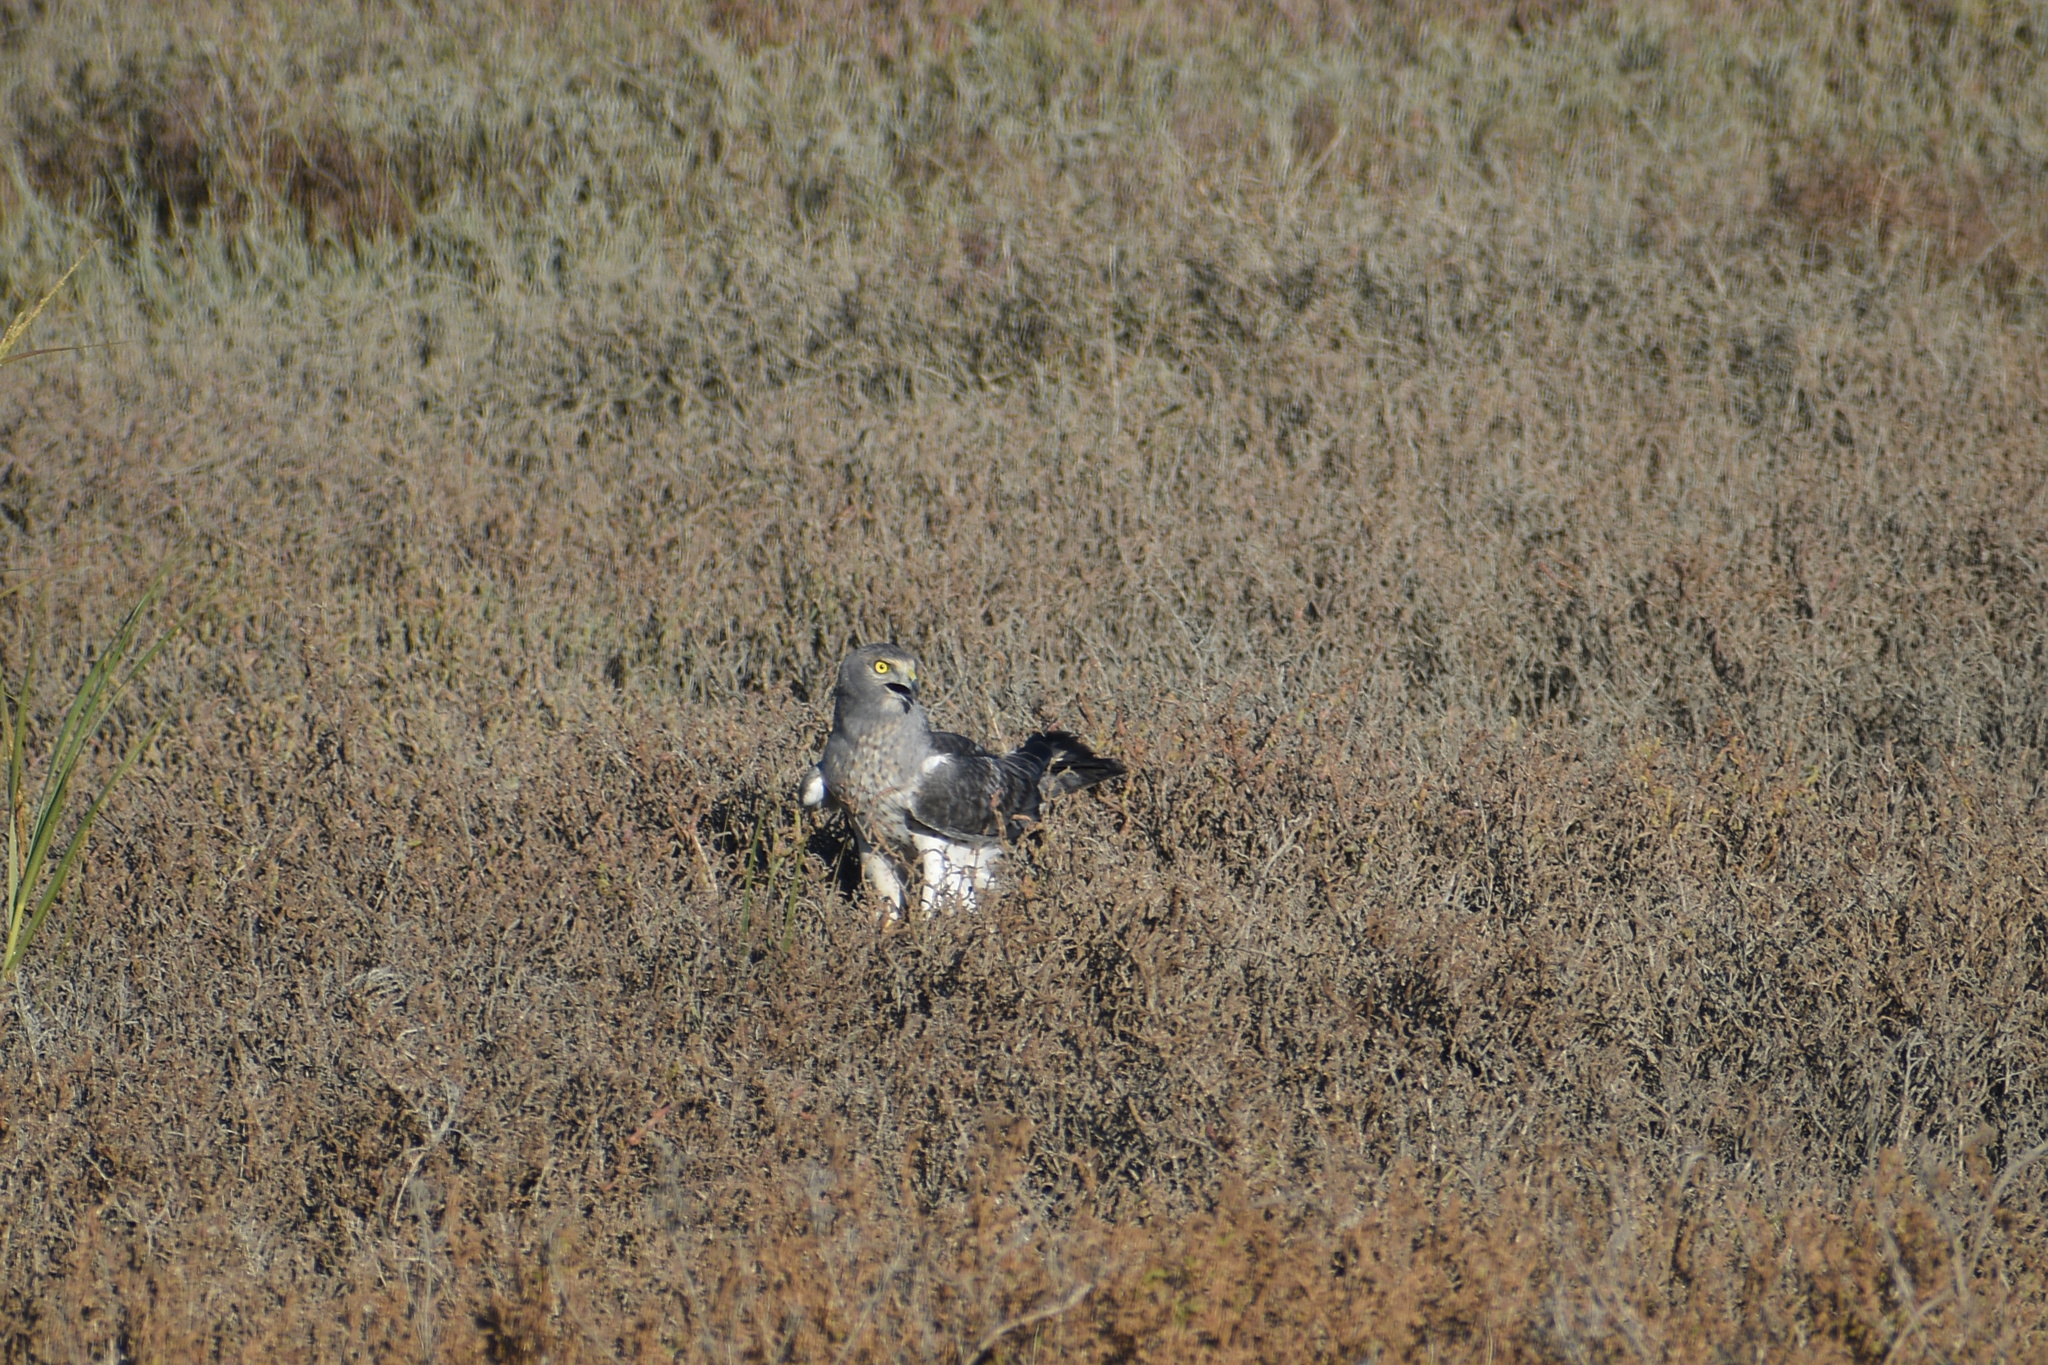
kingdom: Animalia
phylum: Chordata
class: Aves
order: Accipitriformes
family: Accipitridae
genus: Circus
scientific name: Circus cyaneus
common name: Hen harrier
